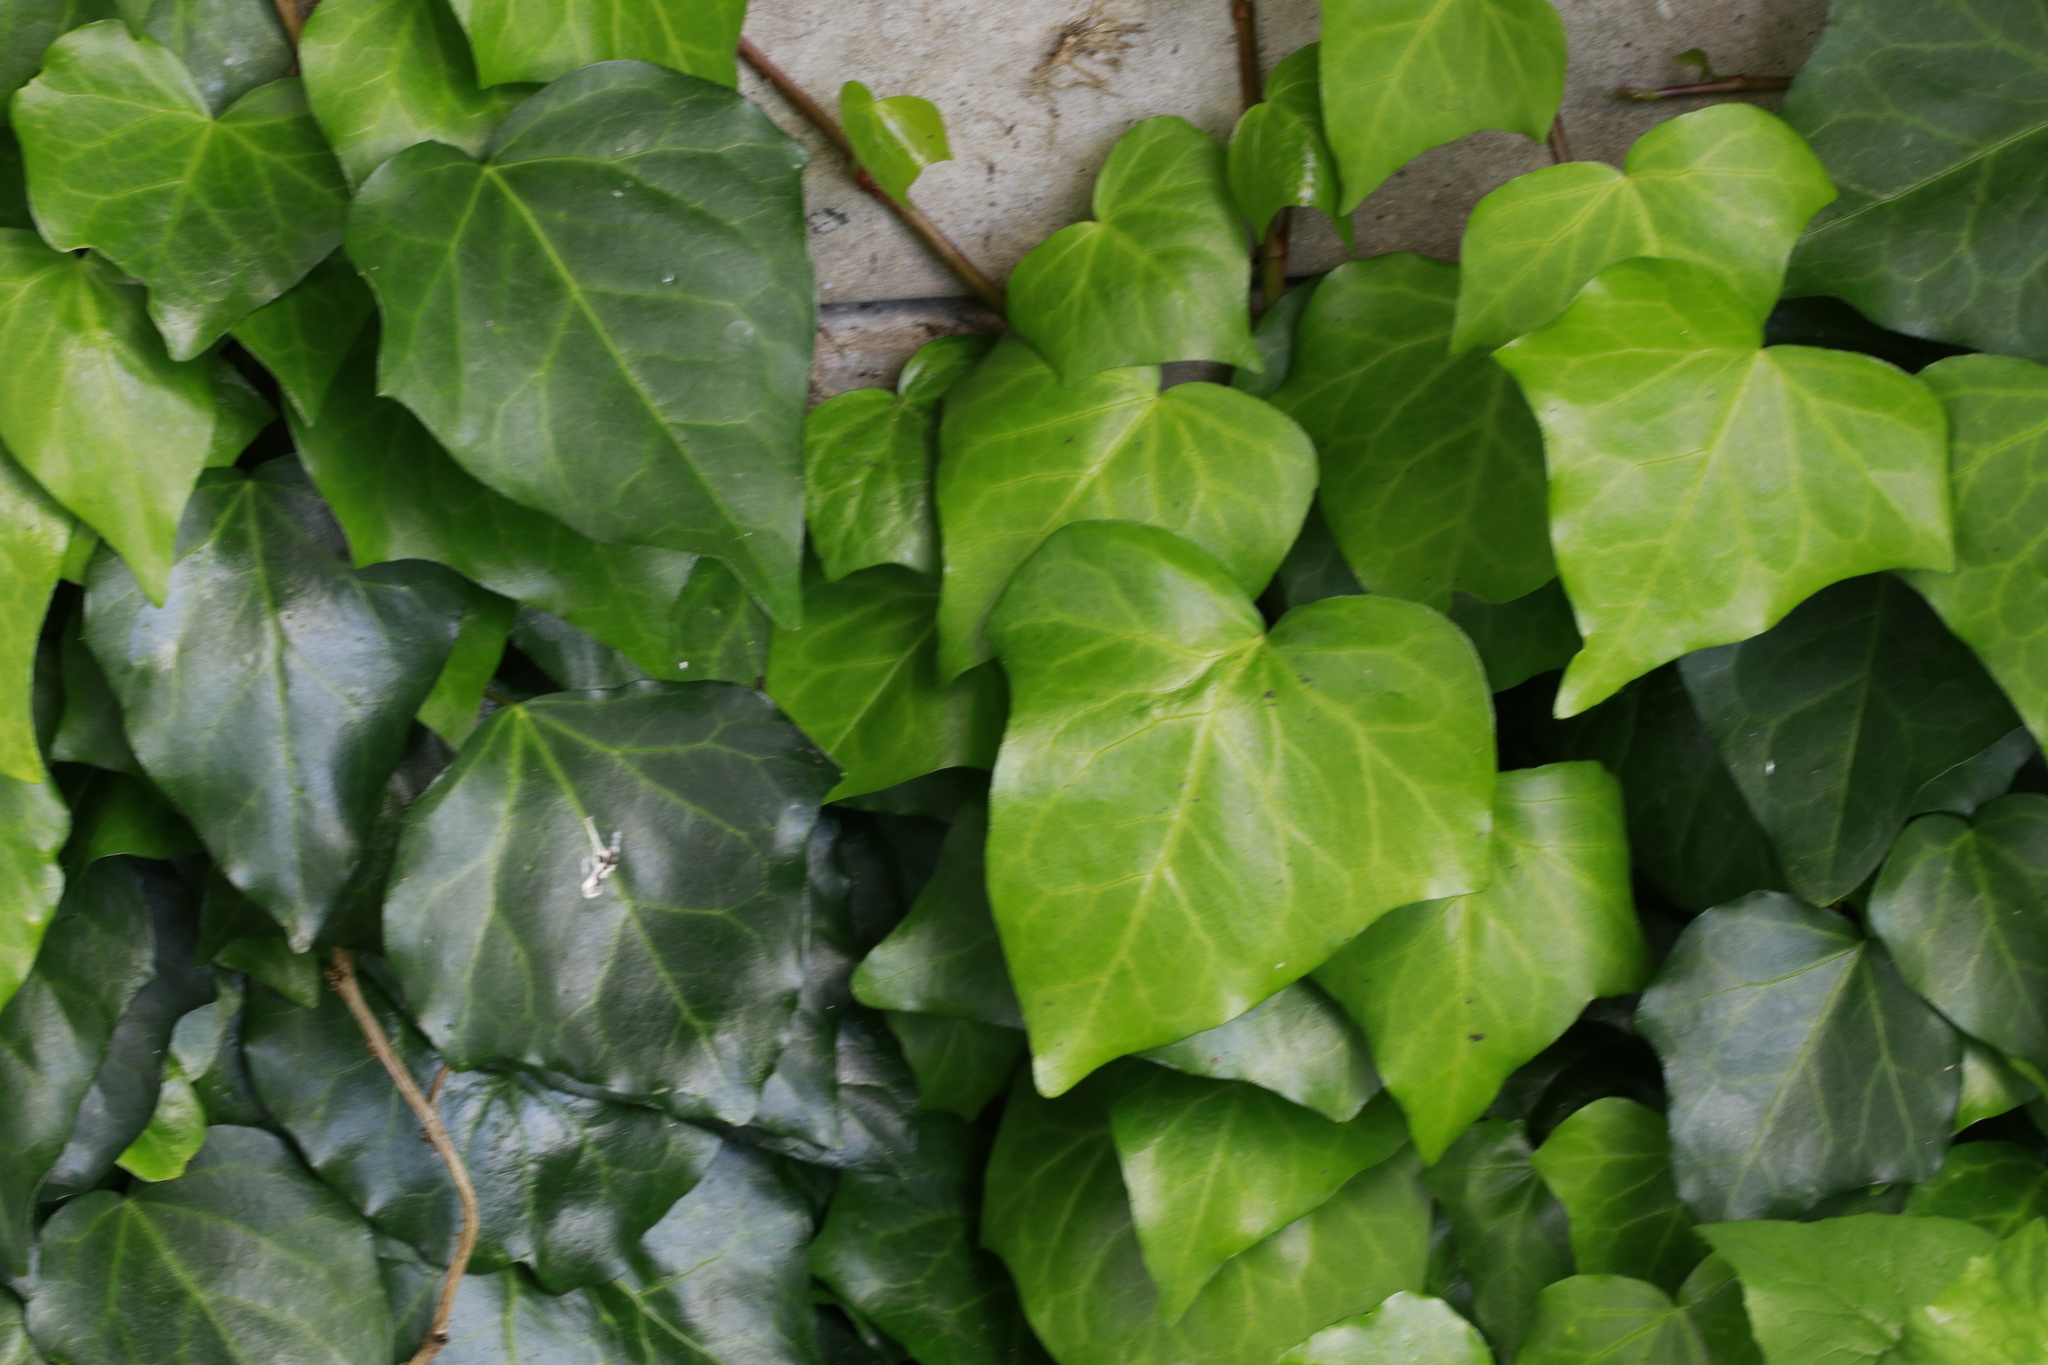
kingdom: Plantae
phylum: Tracheophyta
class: Magnoliopsida
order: Apiales
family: Araliaceae
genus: Hedera
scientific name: Hedera helix
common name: Ivy
